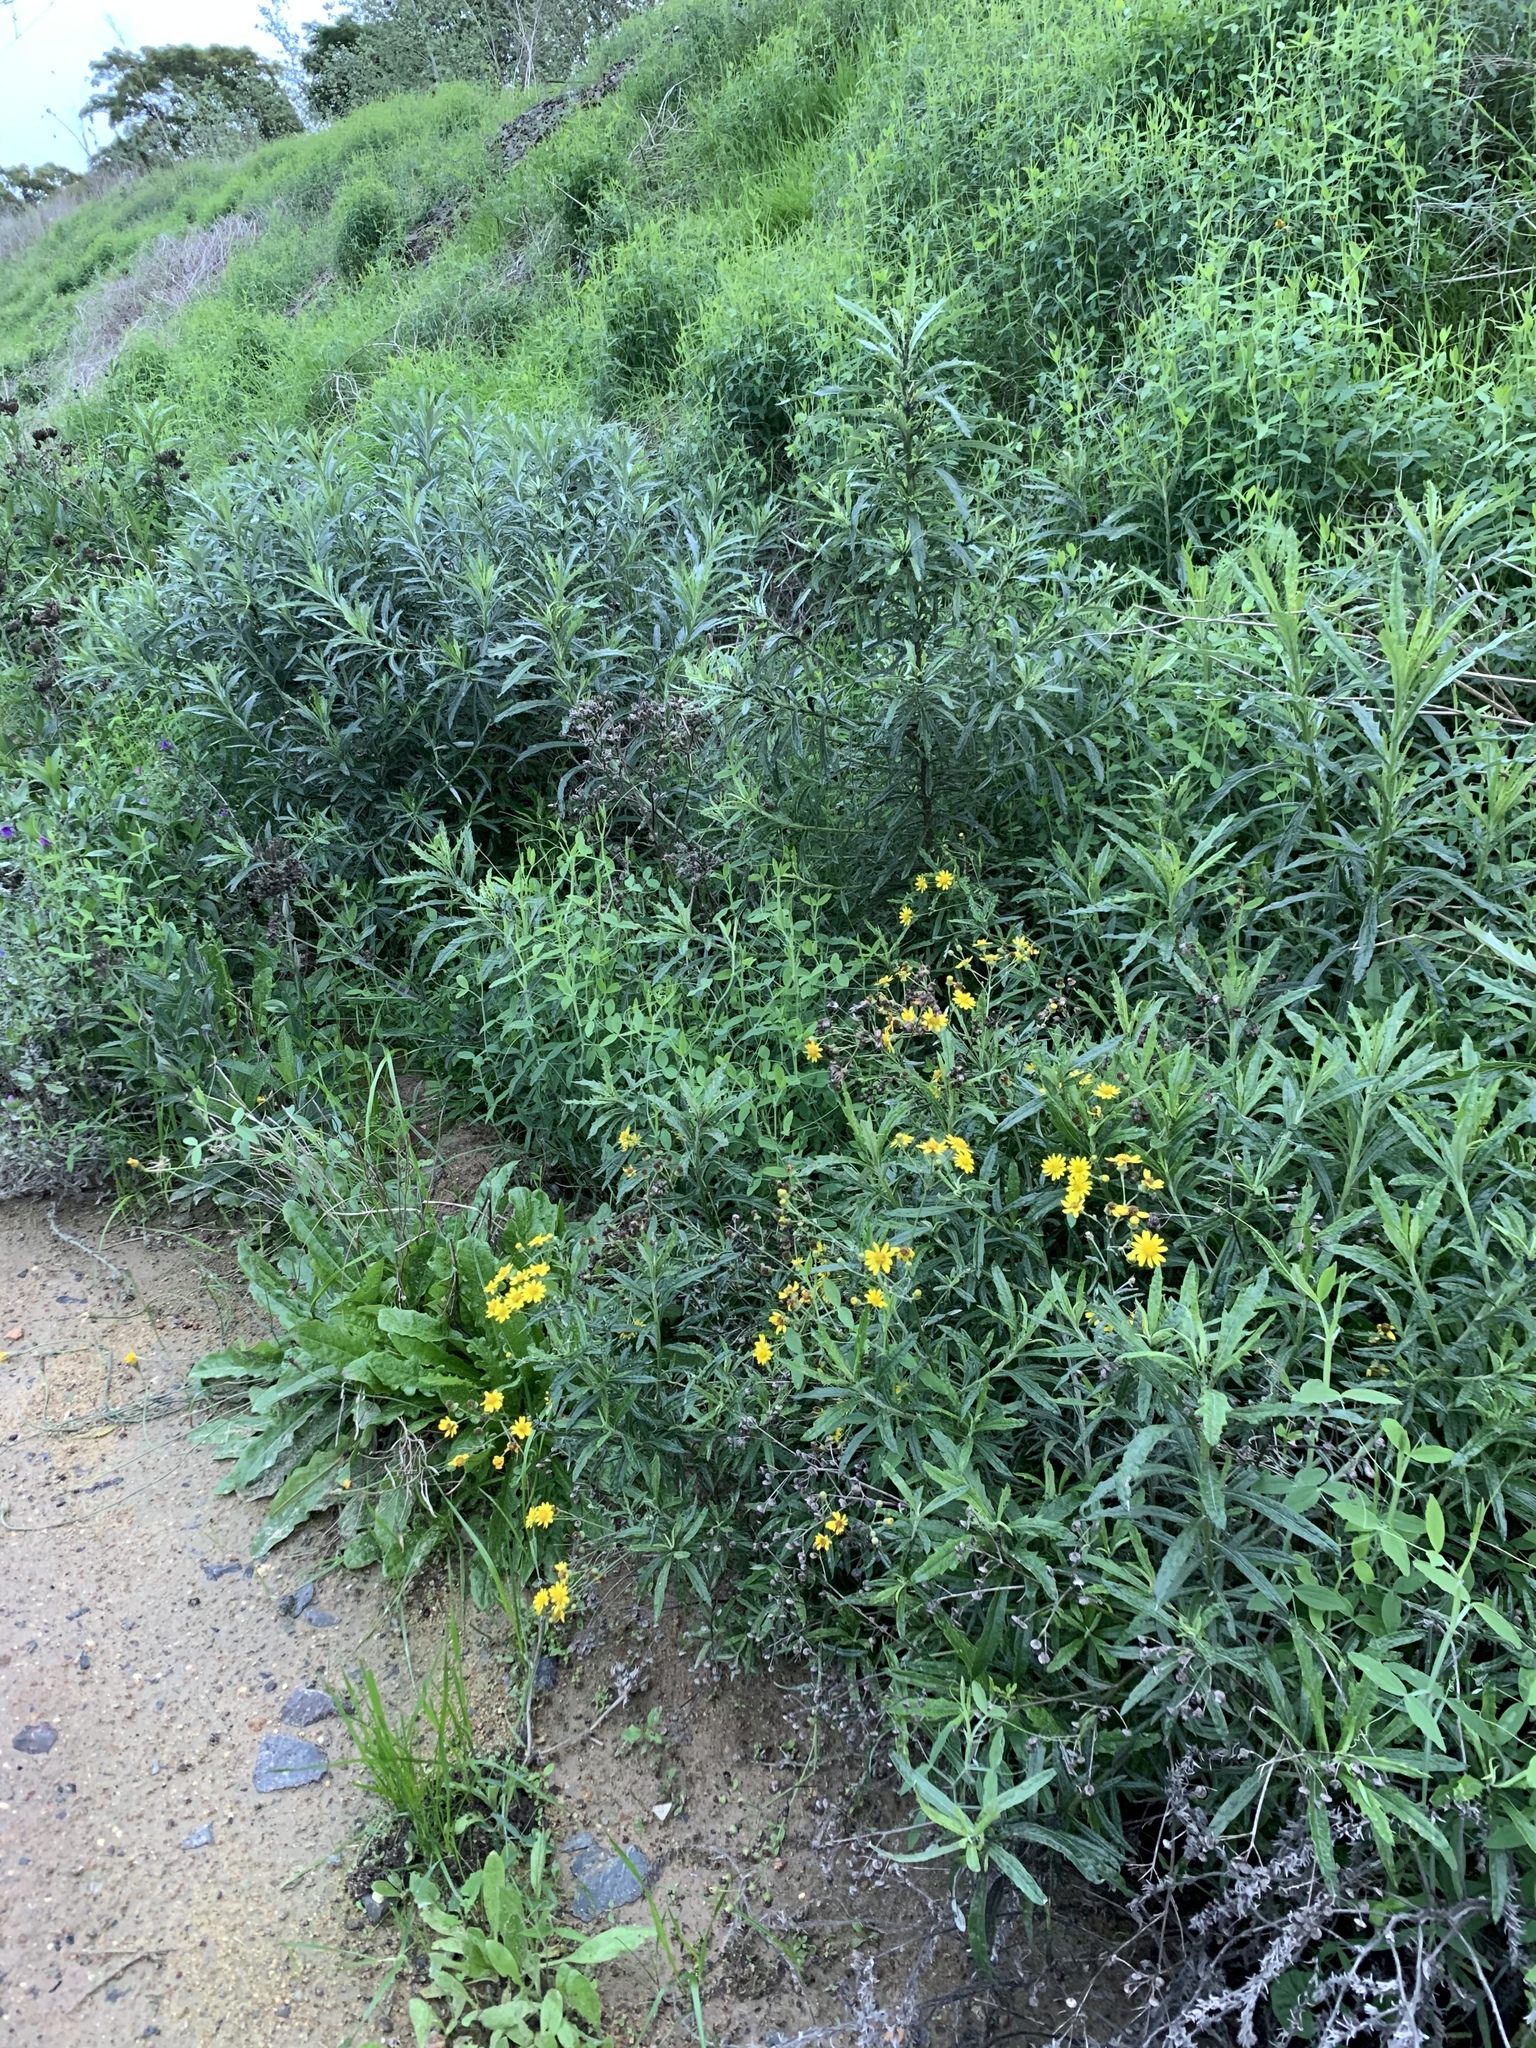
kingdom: Plantae
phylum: Tracheophyta
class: Magnoliopsida
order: Asterales
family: Asteraceae
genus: Senecio
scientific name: Senecio pterophorus
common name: Shoddy ragwort
